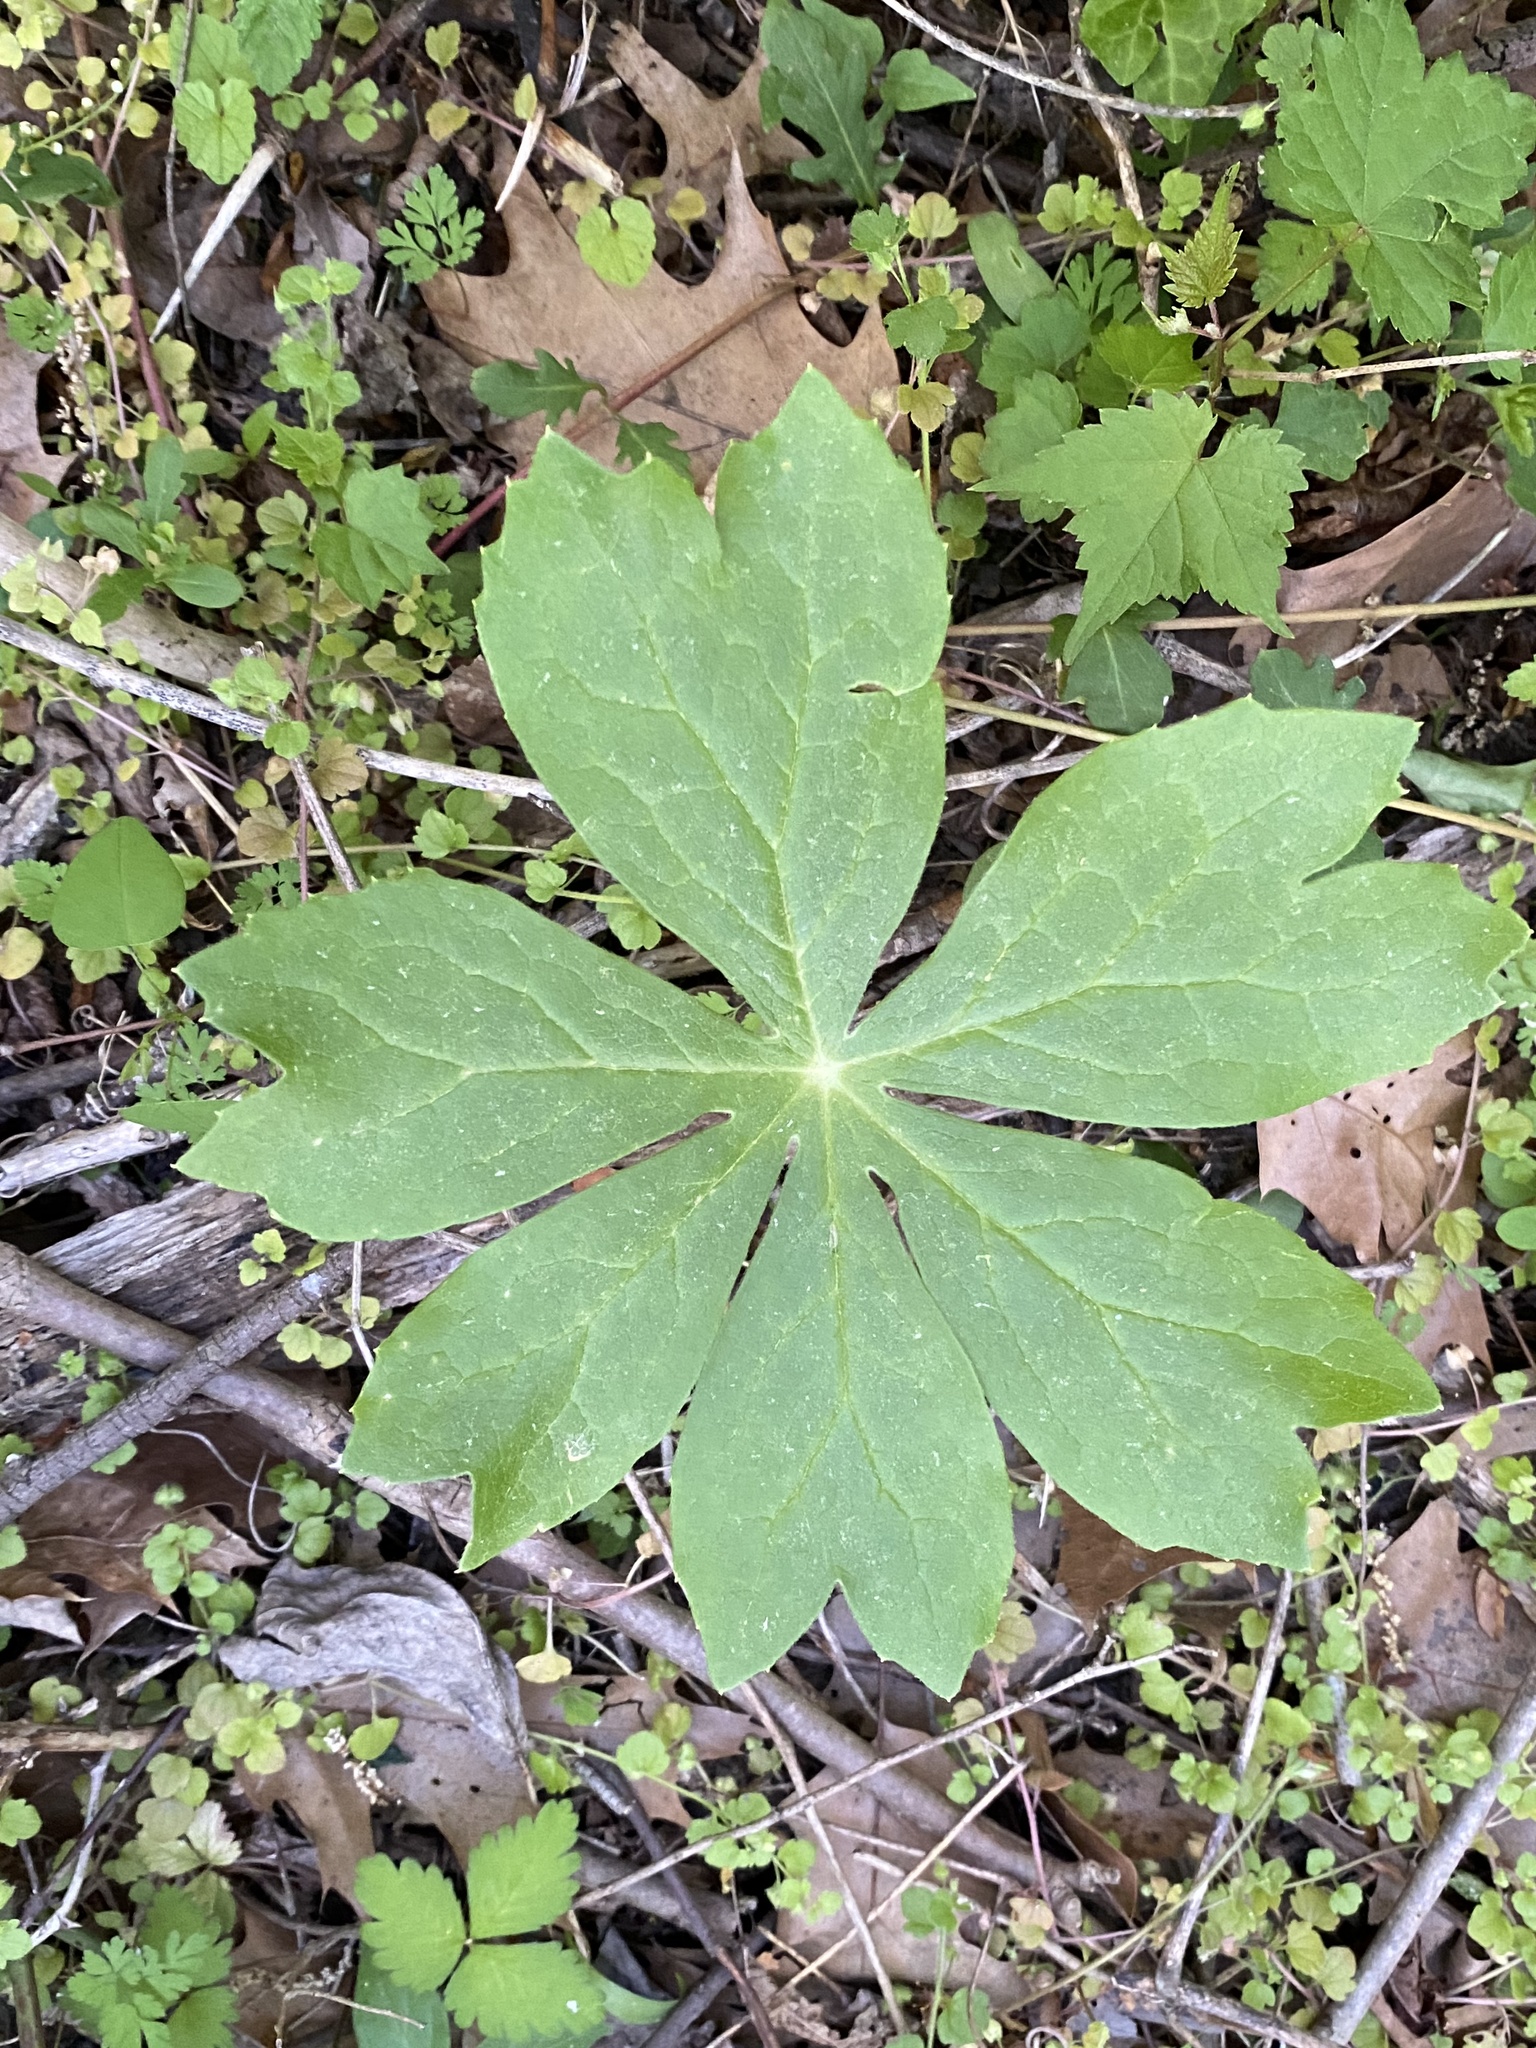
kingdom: Plantae
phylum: Tracheophyta
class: Magnoliopsida
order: Ranunculales
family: Berberidaceae
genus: Podophyllum
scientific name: Podophyllum peltatum
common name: Wild mandrake
